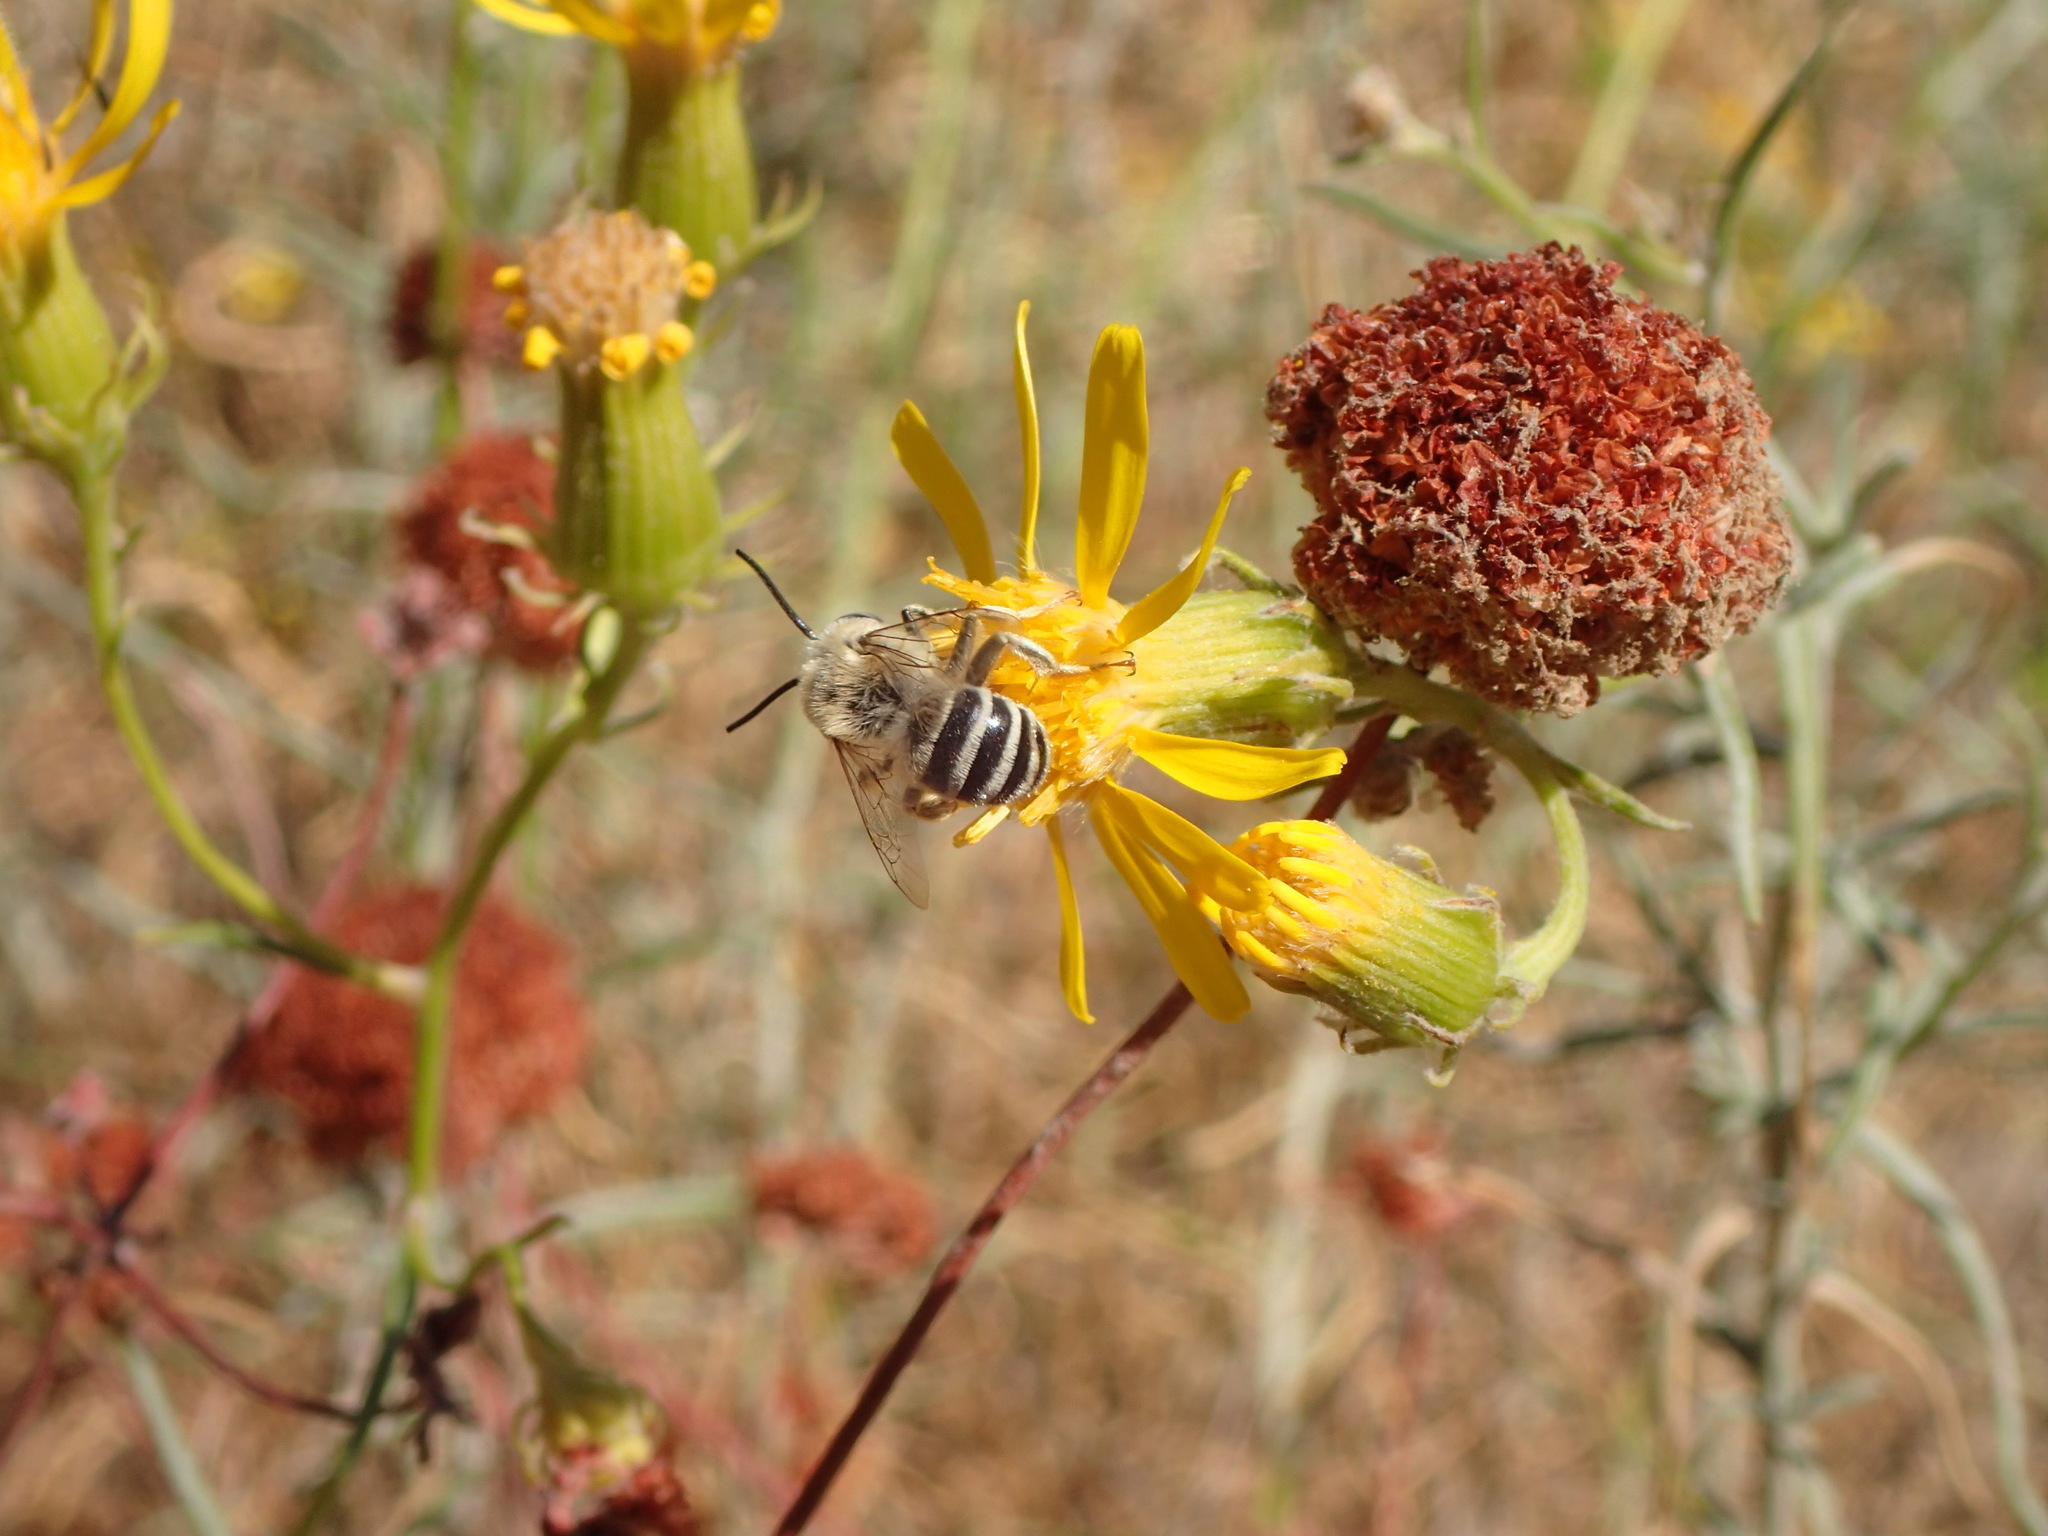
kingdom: Animalia
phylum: Arthropoda
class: Insecta
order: Hymenoptera
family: Apidae
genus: Anthophora
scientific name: Anthophora urbana
